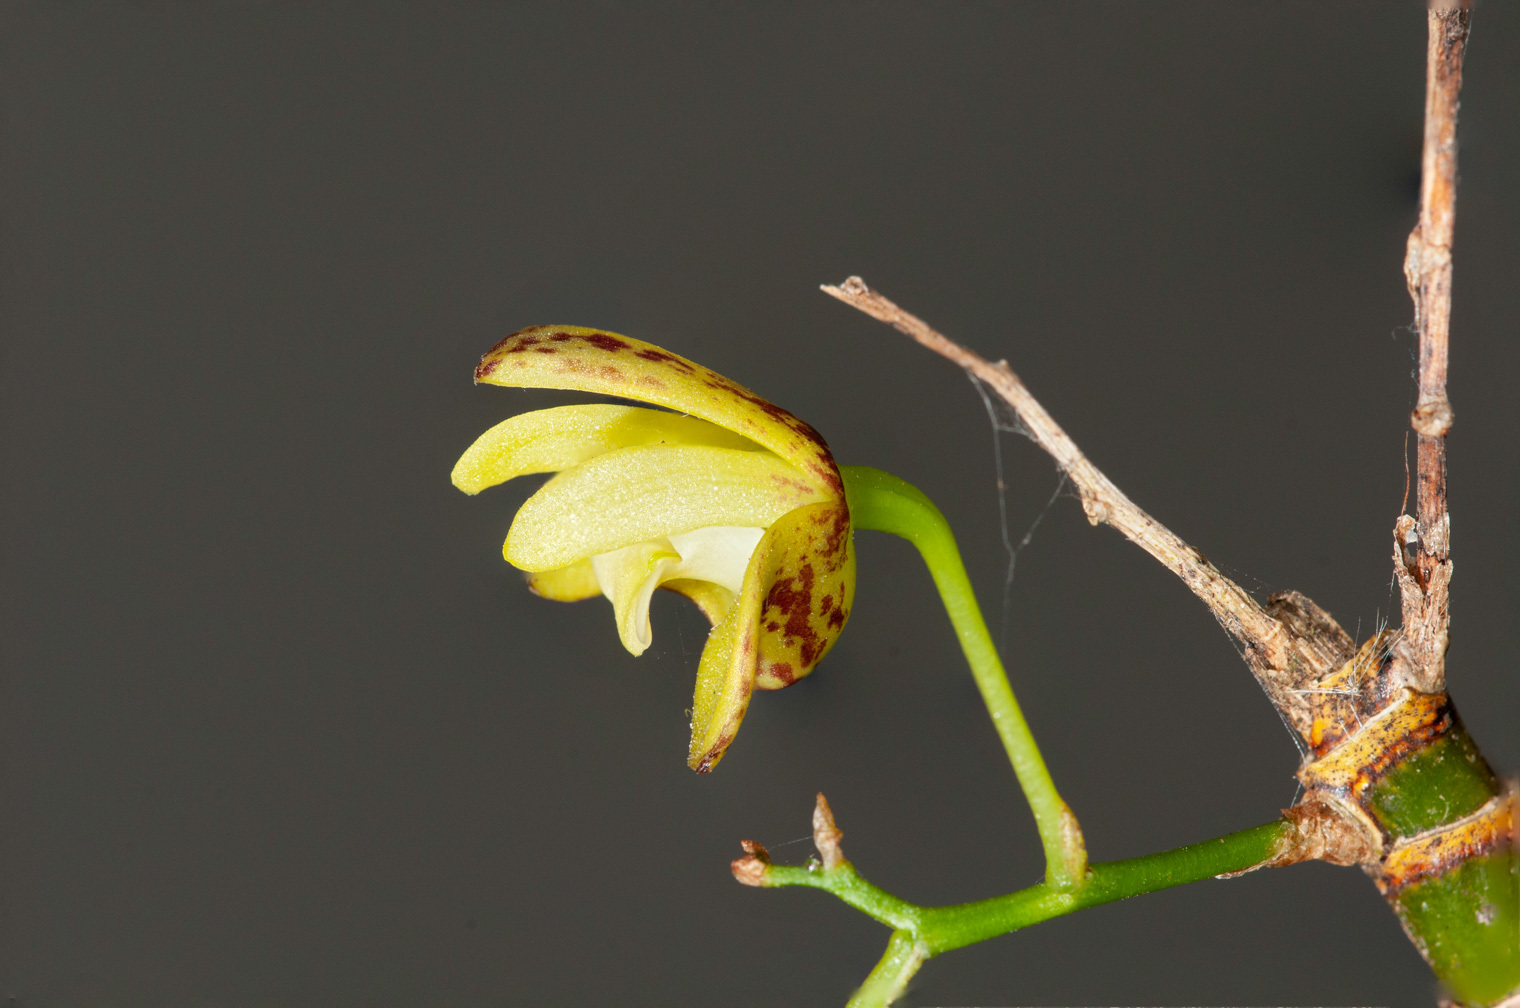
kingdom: Plantae
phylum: Tracheophyta
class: Liliopsida
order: Asparagales
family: Orchidaceae
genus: Dendrobium
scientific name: Dendrobium gracilicaule
